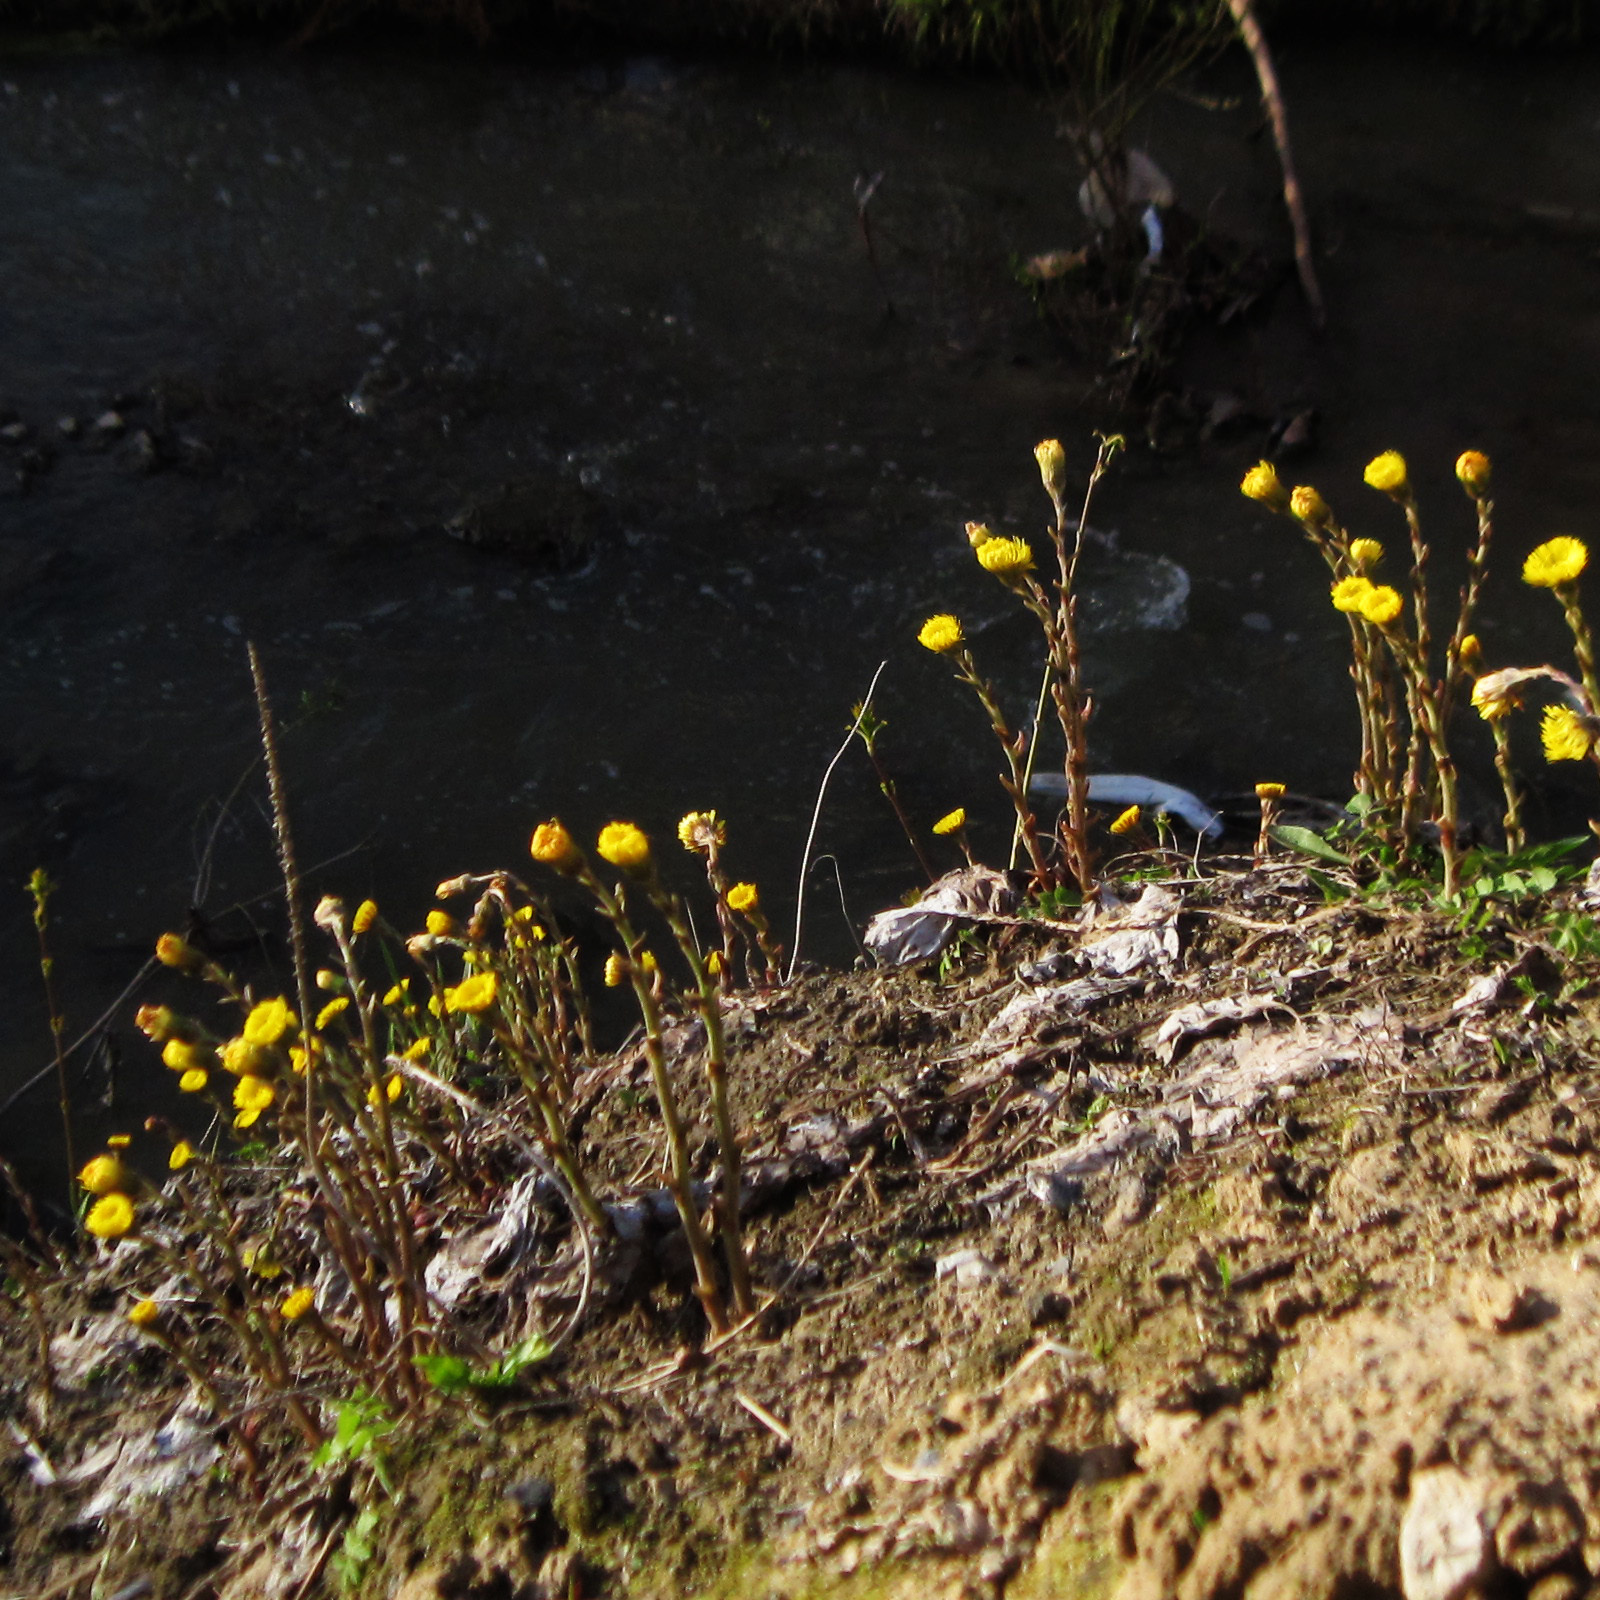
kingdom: Plantae
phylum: Tracheophyta
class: Magnoliopsida
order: Asterales
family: Asteraceae
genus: Tussilago
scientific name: Tussilago farfara
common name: Coltsfoot
